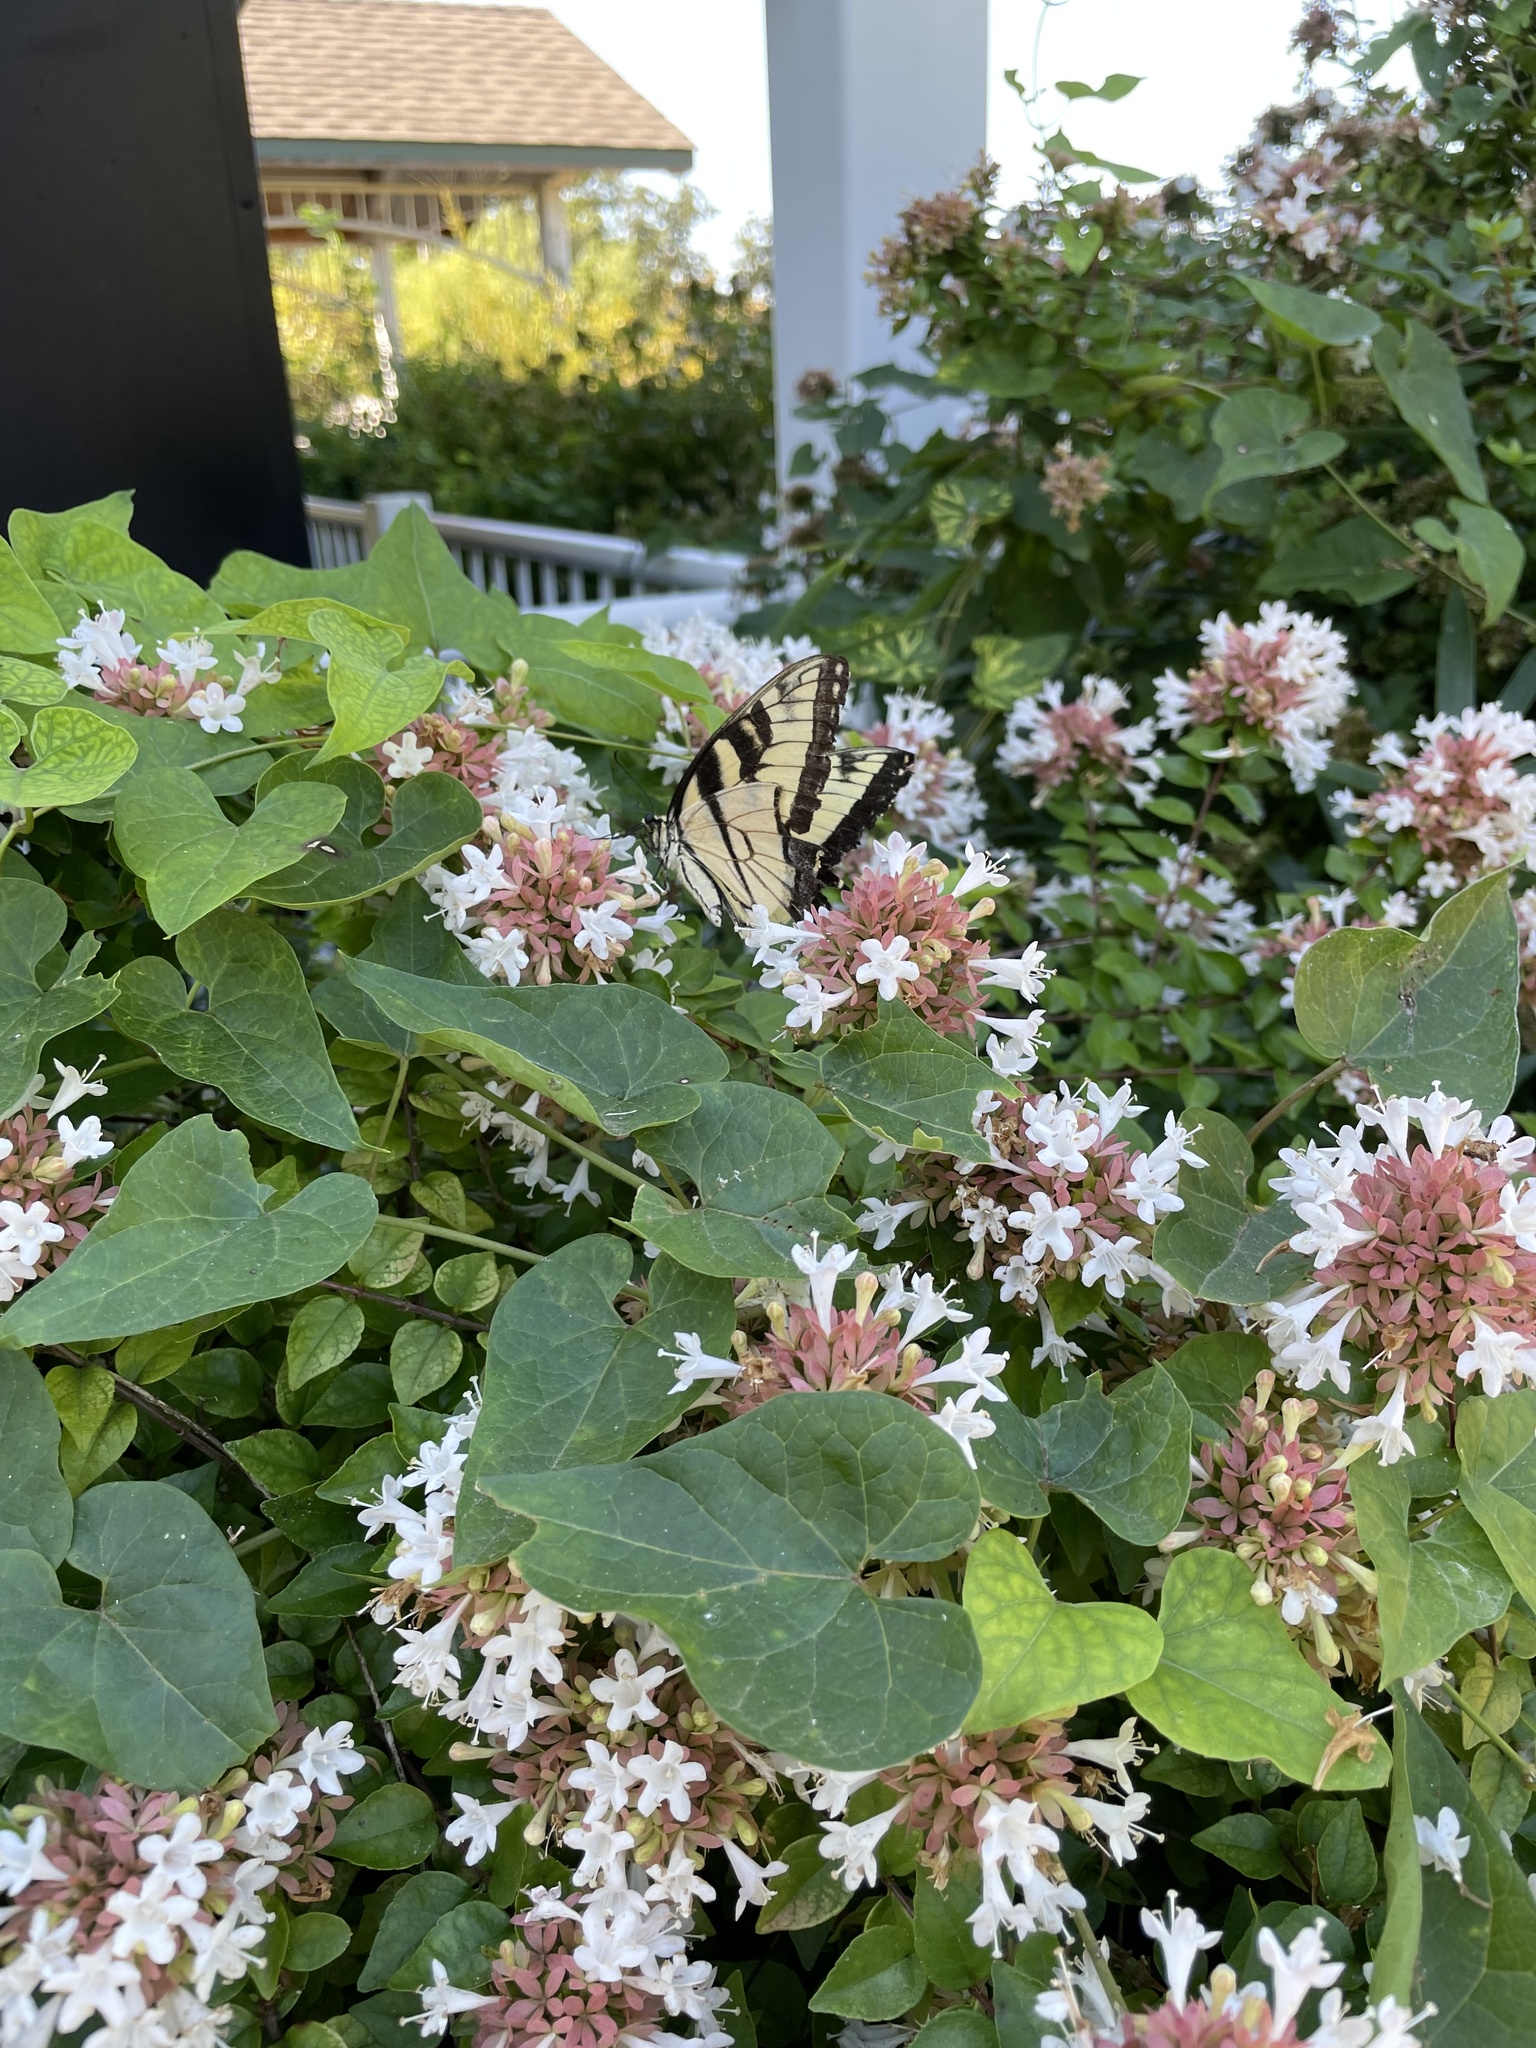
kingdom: Animalia
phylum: Arthropoda
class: Insecta
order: Lepidoptera
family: Papilionidae
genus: Papilio
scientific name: Papilio glaucus
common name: Tiger swallowtail
